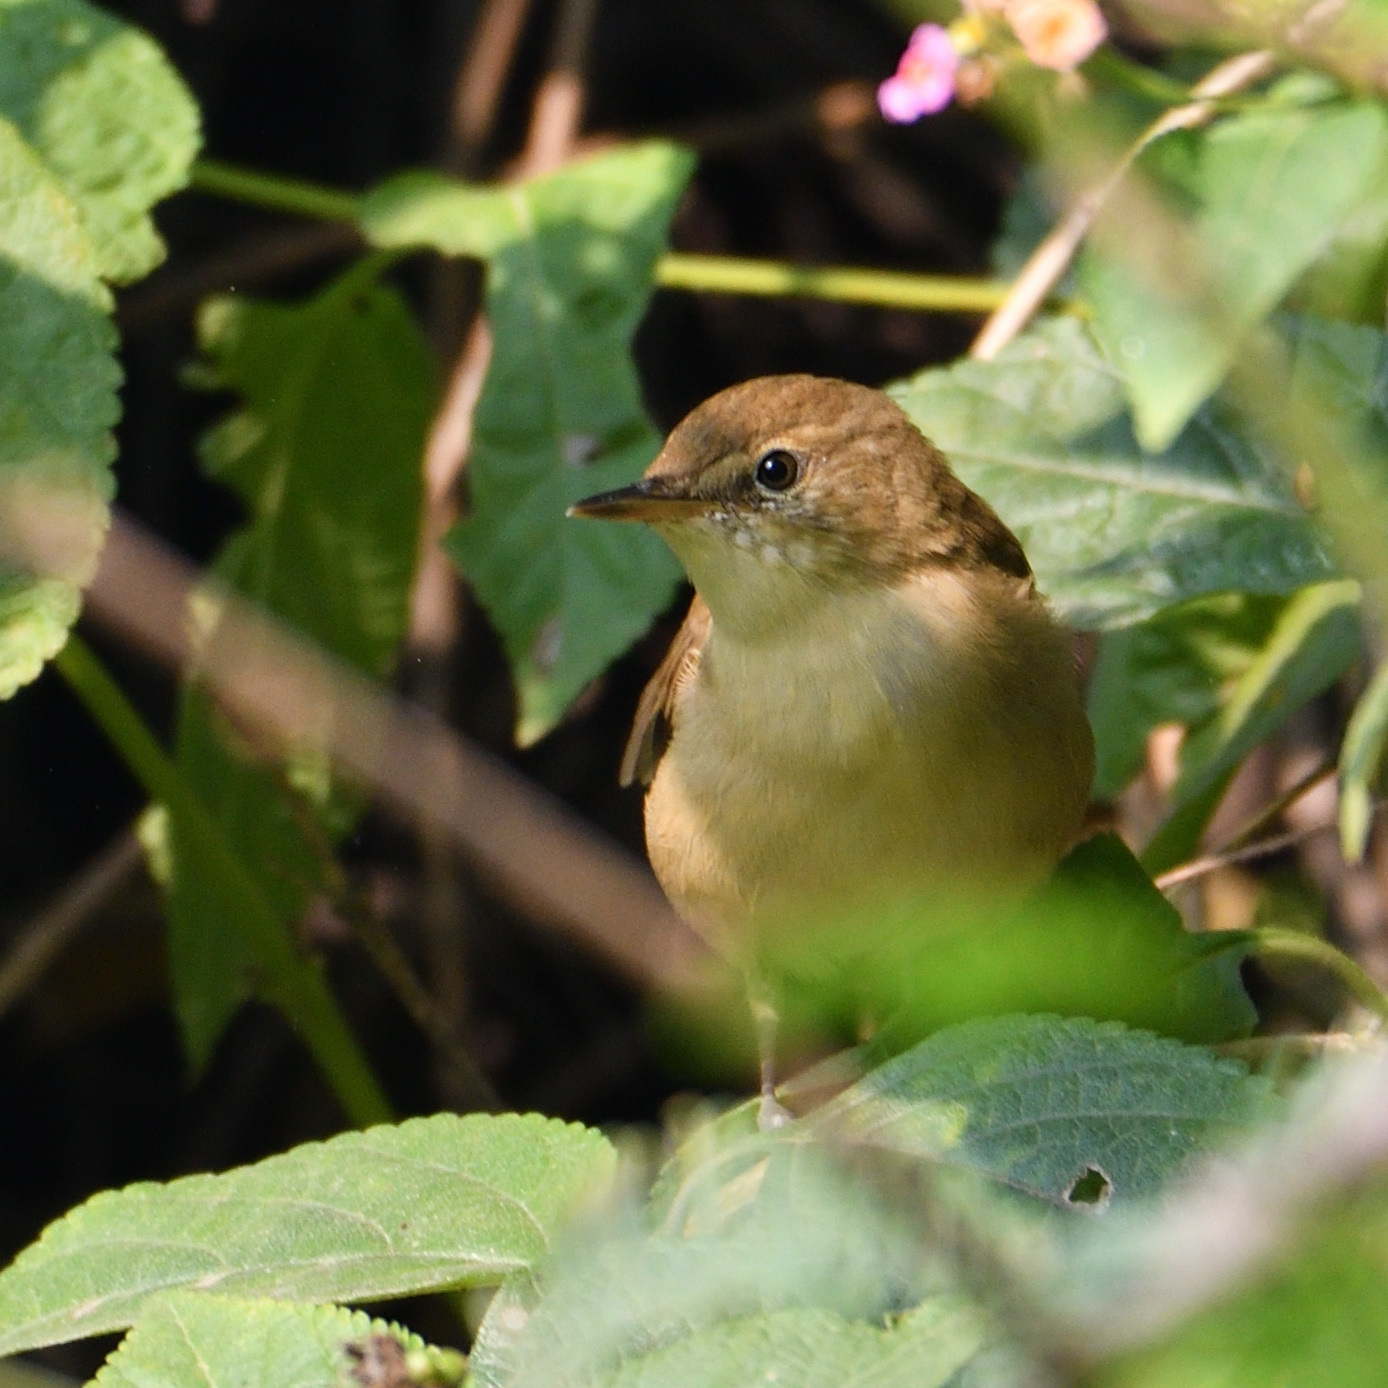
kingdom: Animalia
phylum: Chordata
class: Aves
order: Passeriformes
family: Acrocephalidae
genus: Acrocephalus
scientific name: Acrocephalus dumetorum
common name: Blyth's reed warbler
